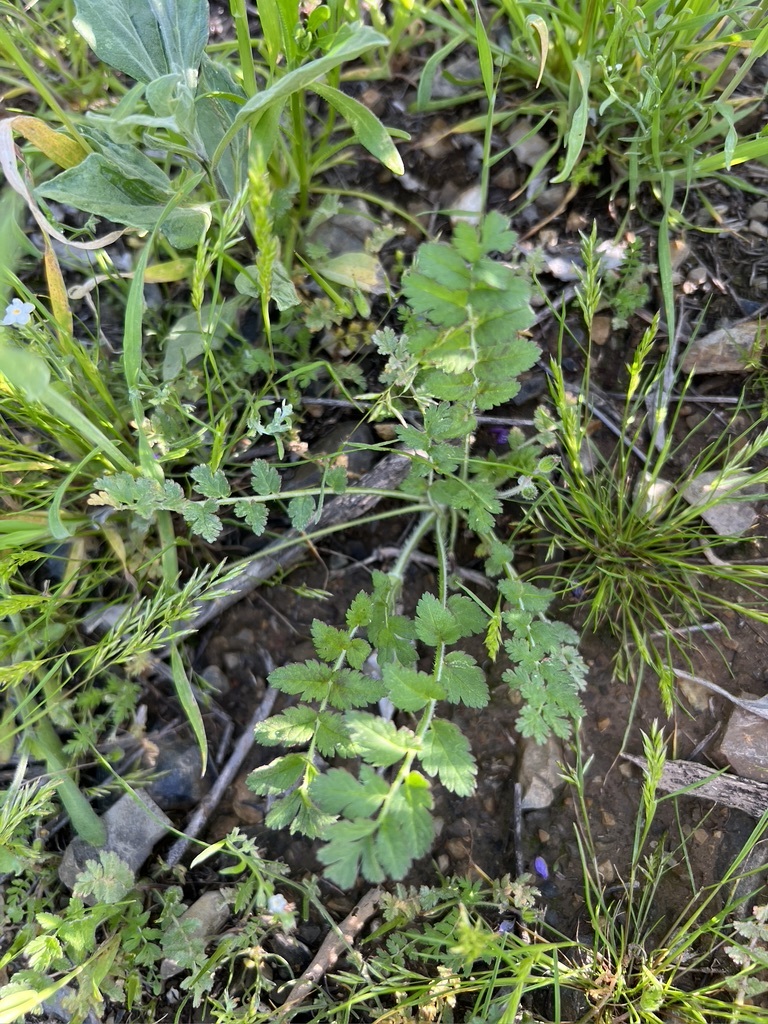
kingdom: Plantae
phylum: Tracheophyta
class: Magnoliopsida
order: Geraniales
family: Geraniaceae
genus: Erodium
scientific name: Erodium moschatum
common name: Musk stork's-bill
